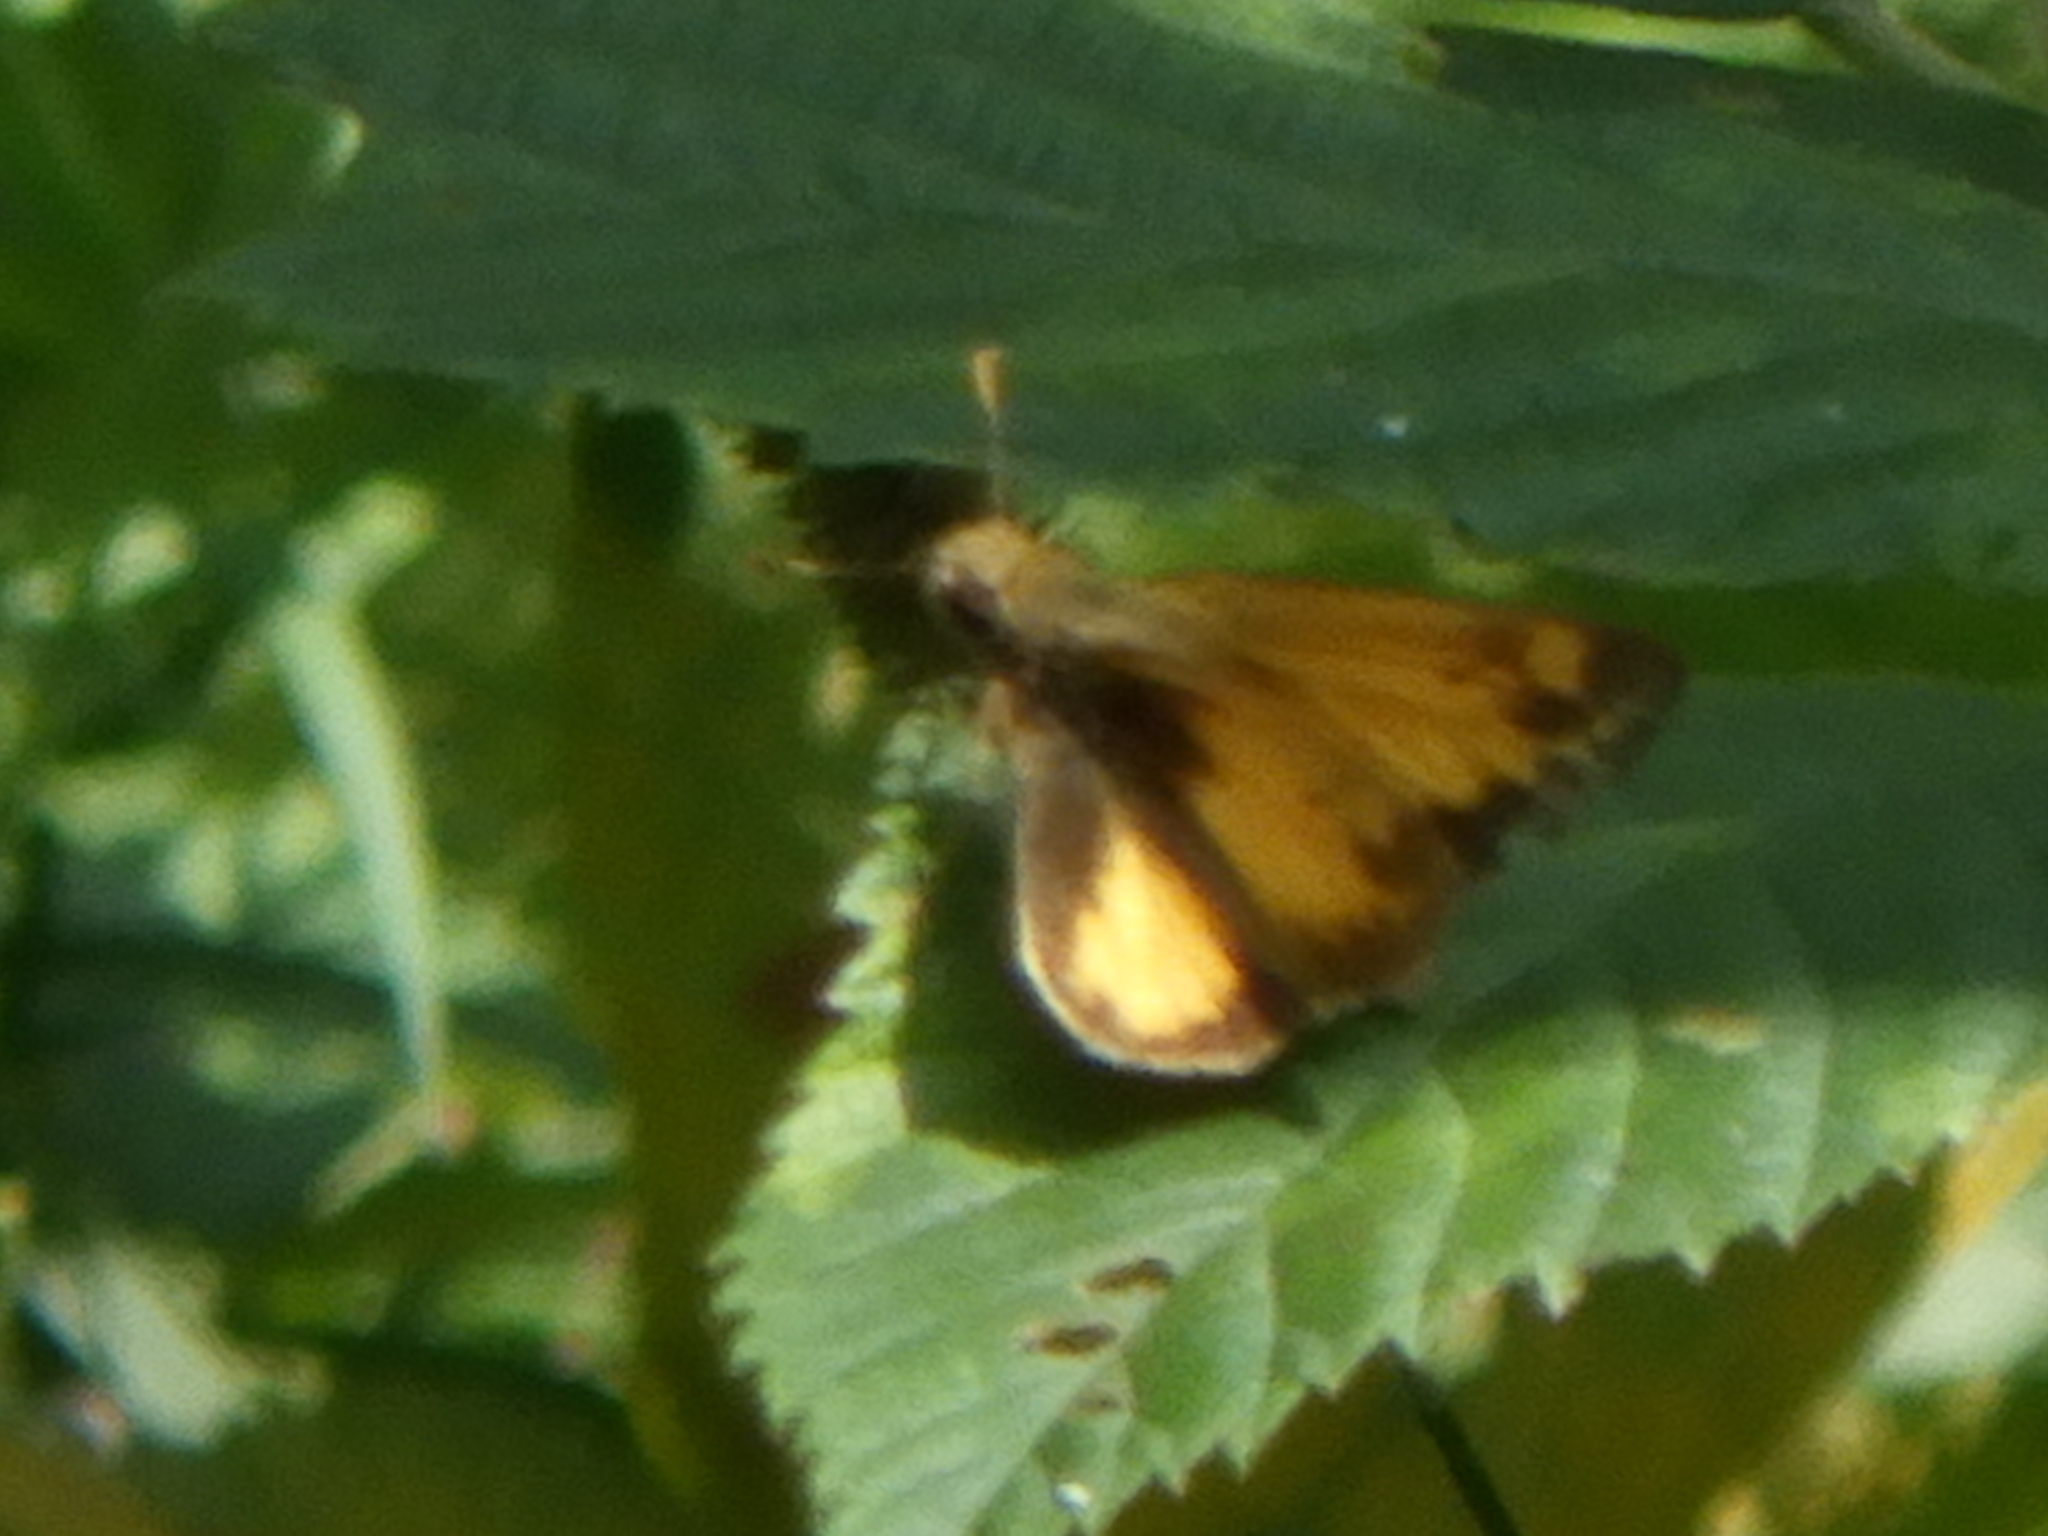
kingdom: Animalia
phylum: Arthropoda
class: Insecta
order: Lepidoptera
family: Hesperiidae
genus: Lon
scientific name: Lon zabulon
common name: Zabulon skipper
